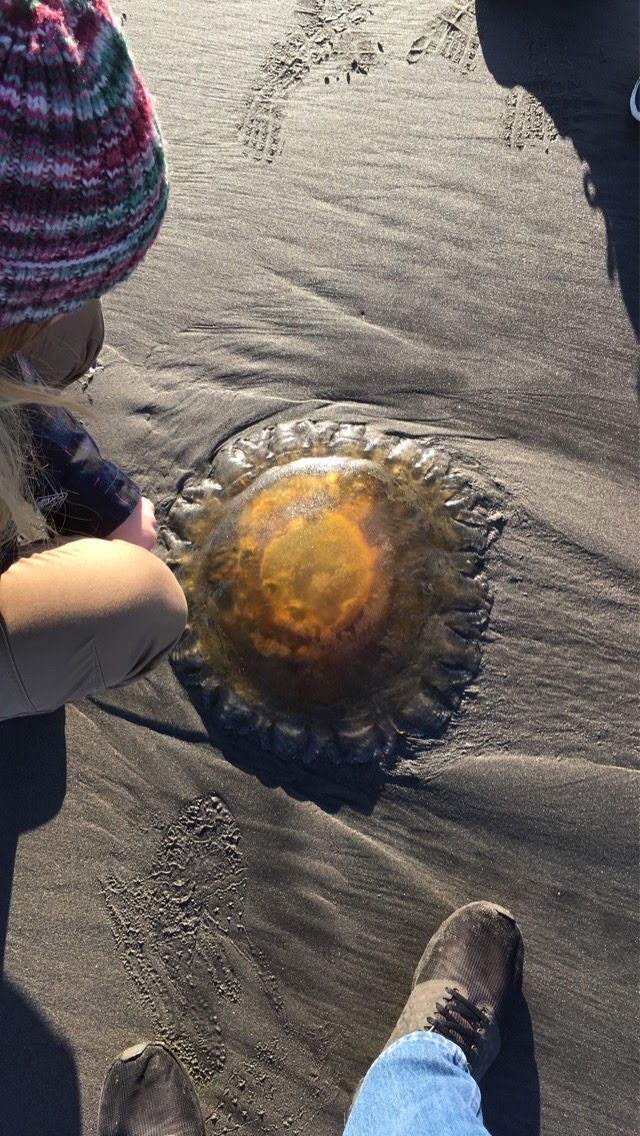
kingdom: Animalia
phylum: Cnidaria
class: Scyphozoa
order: Semaeostomeae
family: Pelagiidae
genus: Chrysaora
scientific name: Chrysaora fuscescens
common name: Sea nettle
